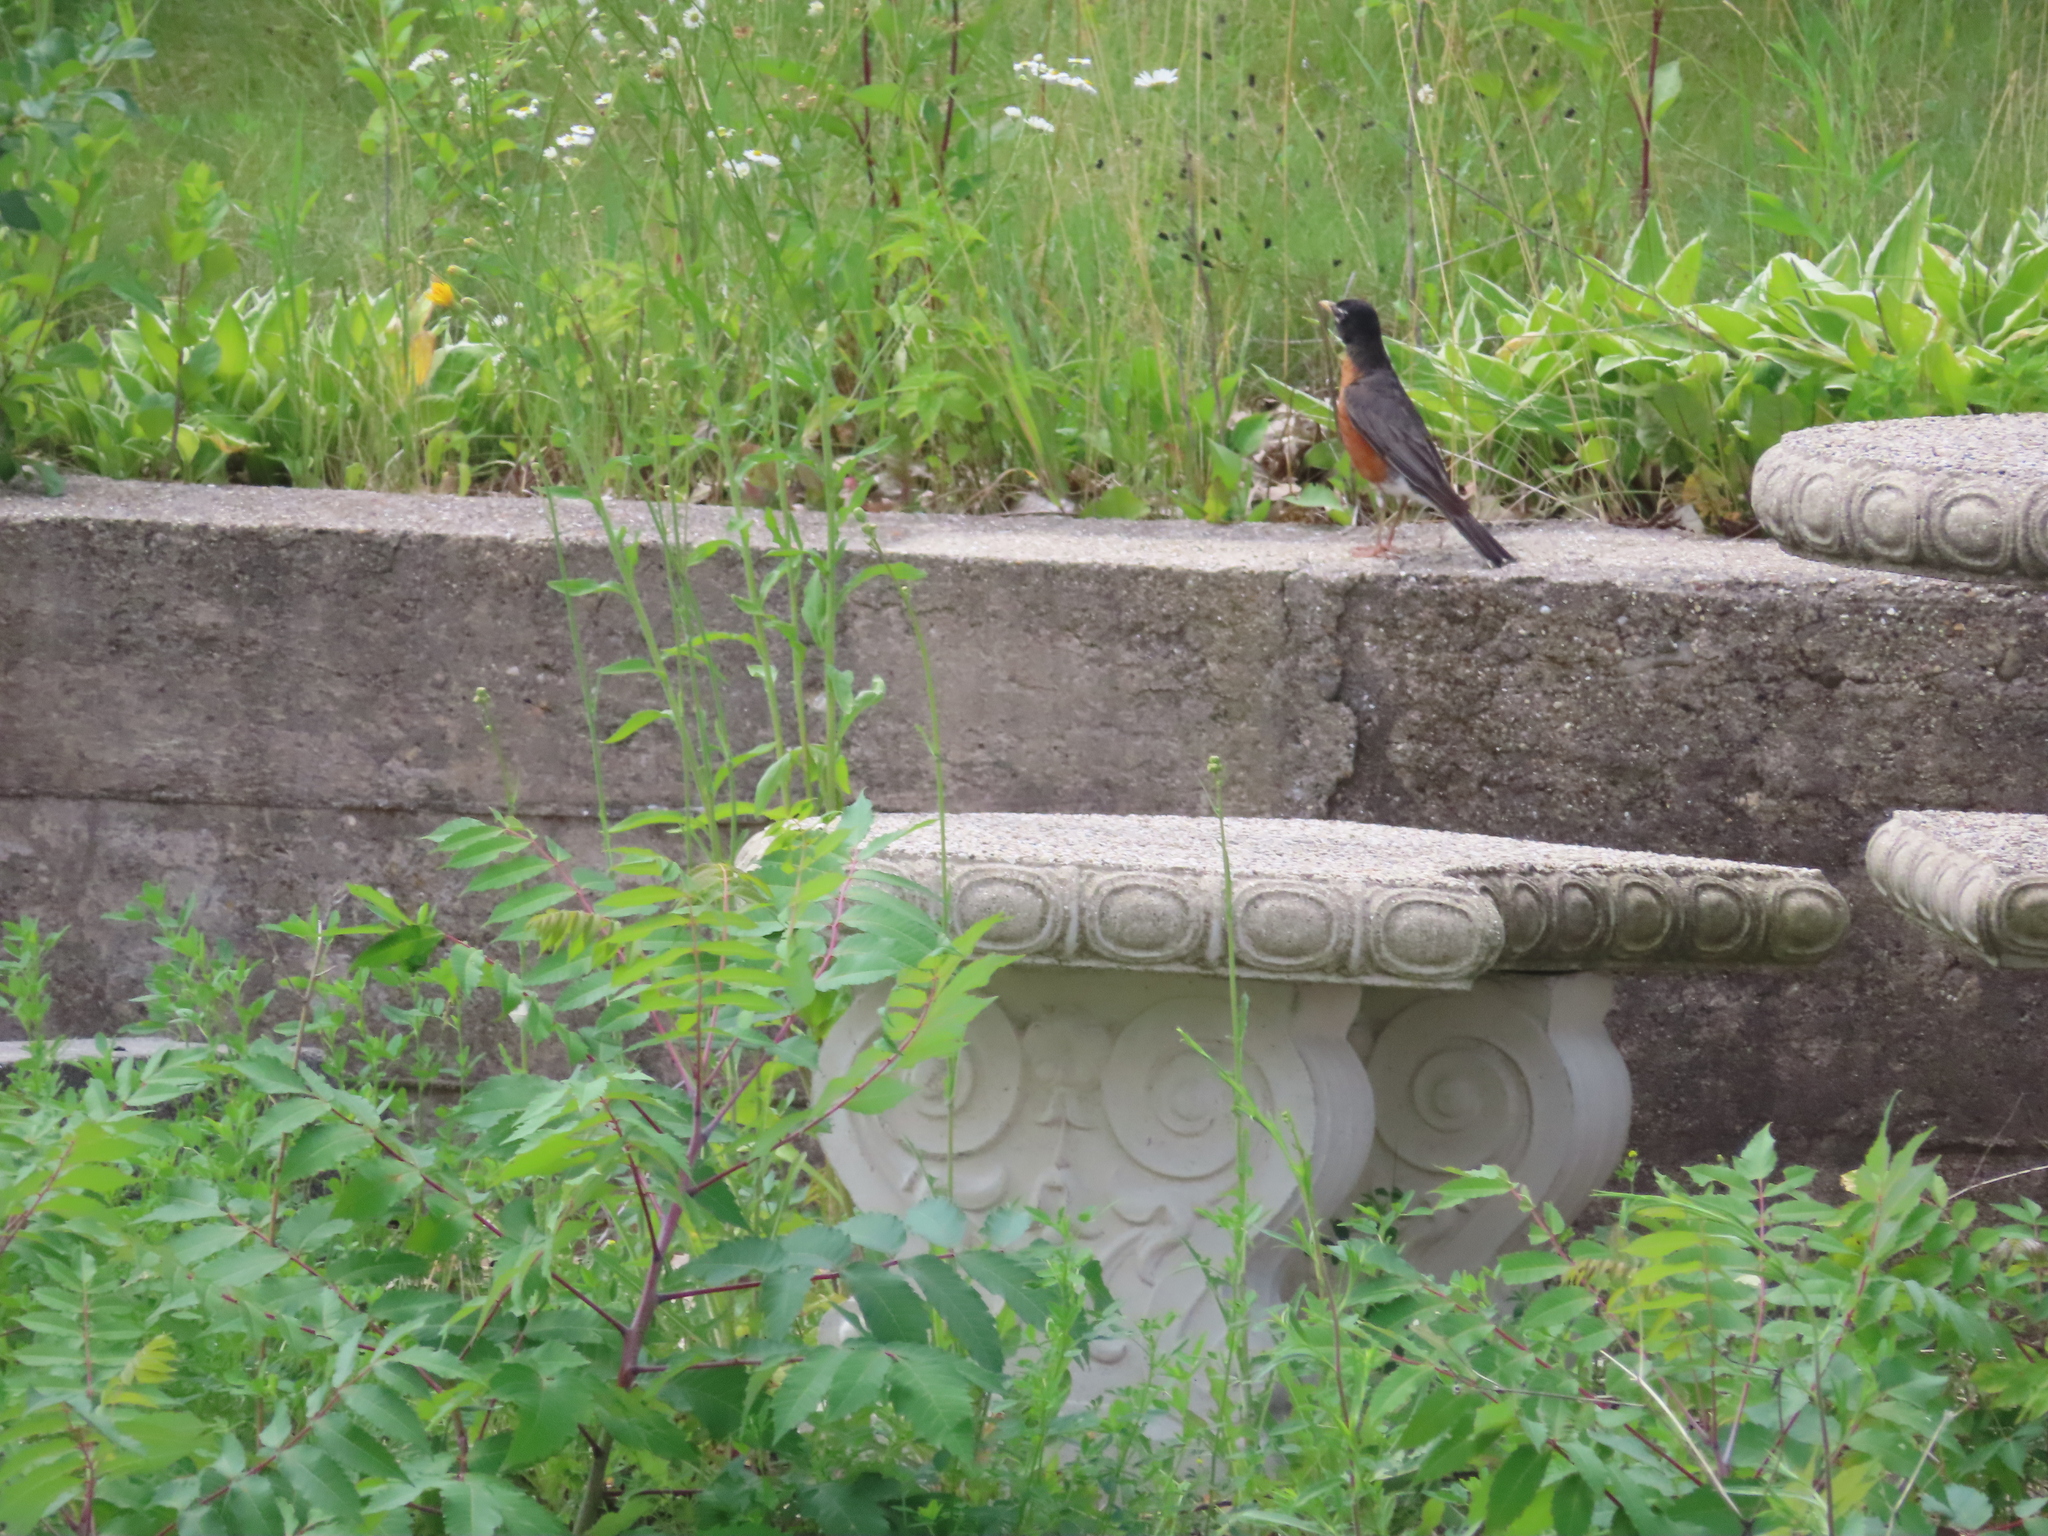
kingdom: Animalia
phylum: Chordata
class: Aves
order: Passeriformes
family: Turdidae
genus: Turdus
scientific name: Turdus migratorius
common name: American robin
